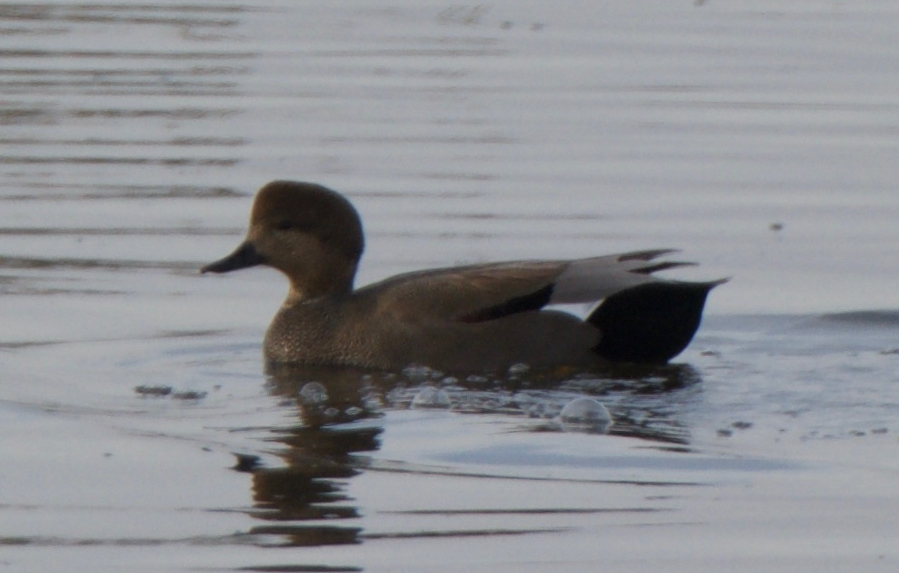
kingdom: Animalia
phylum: Chordata
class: Aves
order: Anseriformes
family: Anatidae
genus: Mareca
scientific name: Mareca strepera
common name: Gadwall
